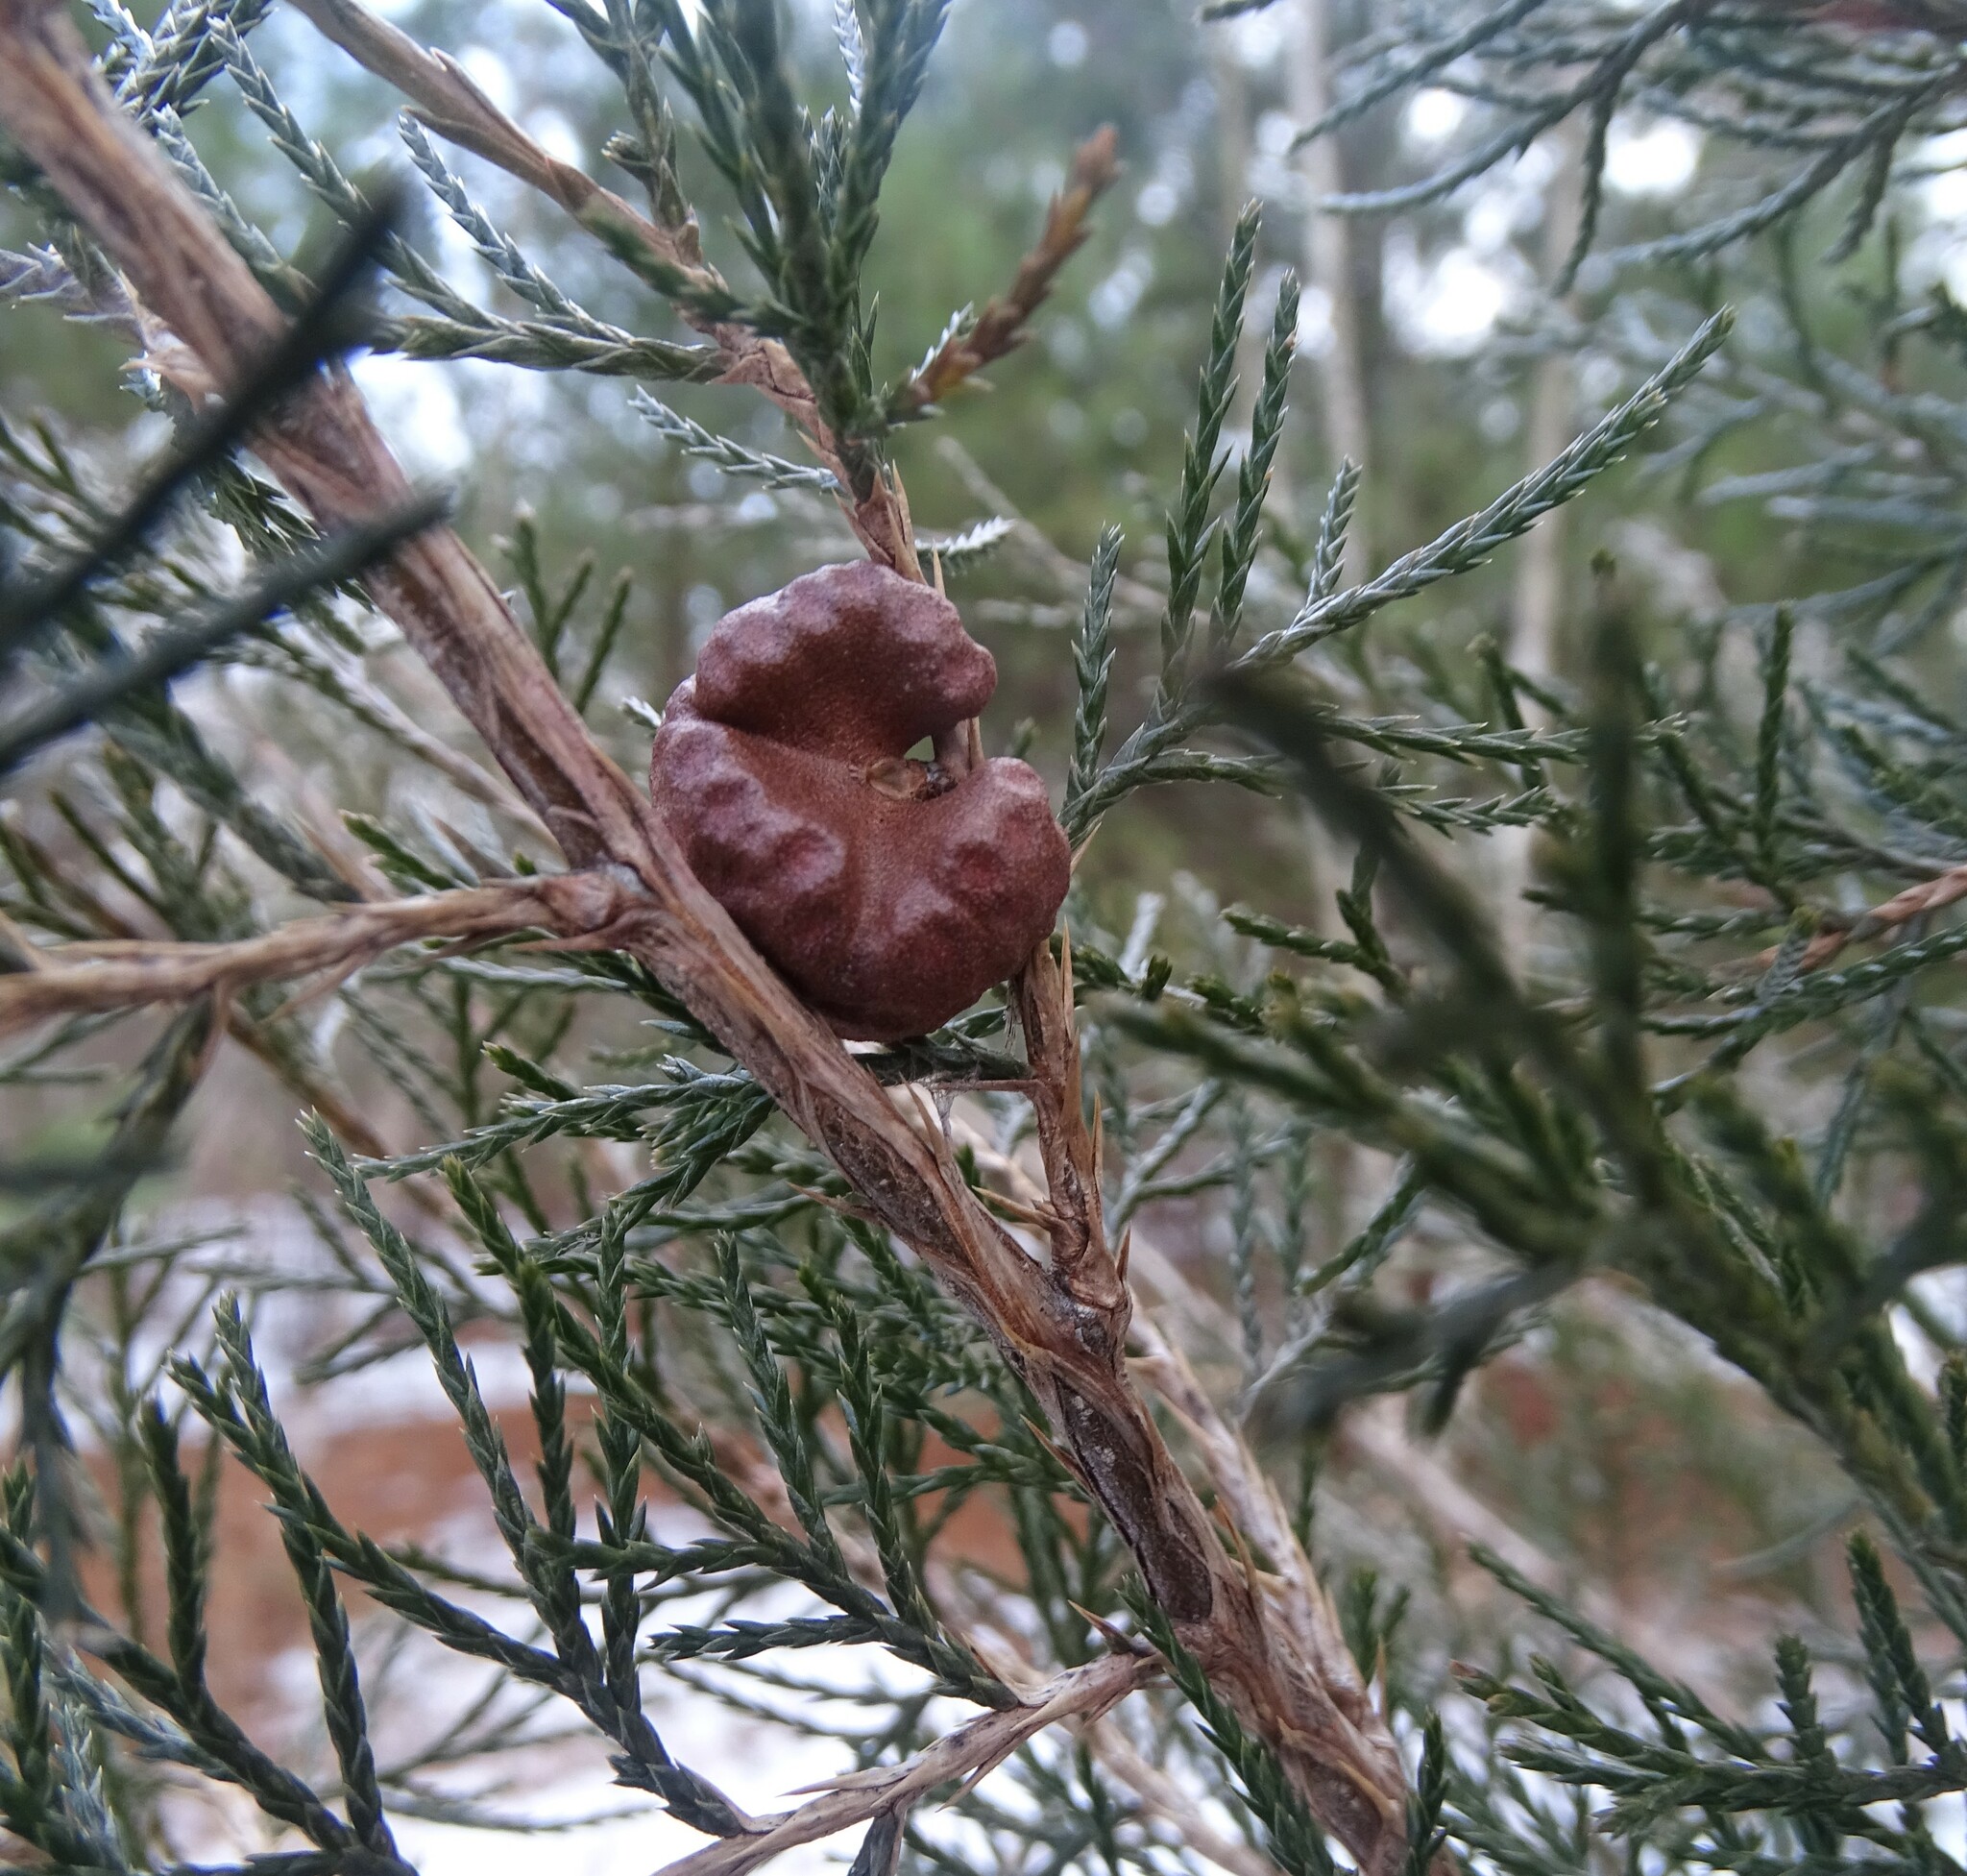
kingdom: Fungi
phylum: Basidiomycota
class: Pucciniomycetes
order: Pucciniales
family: Gymnosporangiaceae
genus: Gymnosporangium
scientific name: Gymnosporangium juniperi-virginianae
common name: Juniper-apple rust
